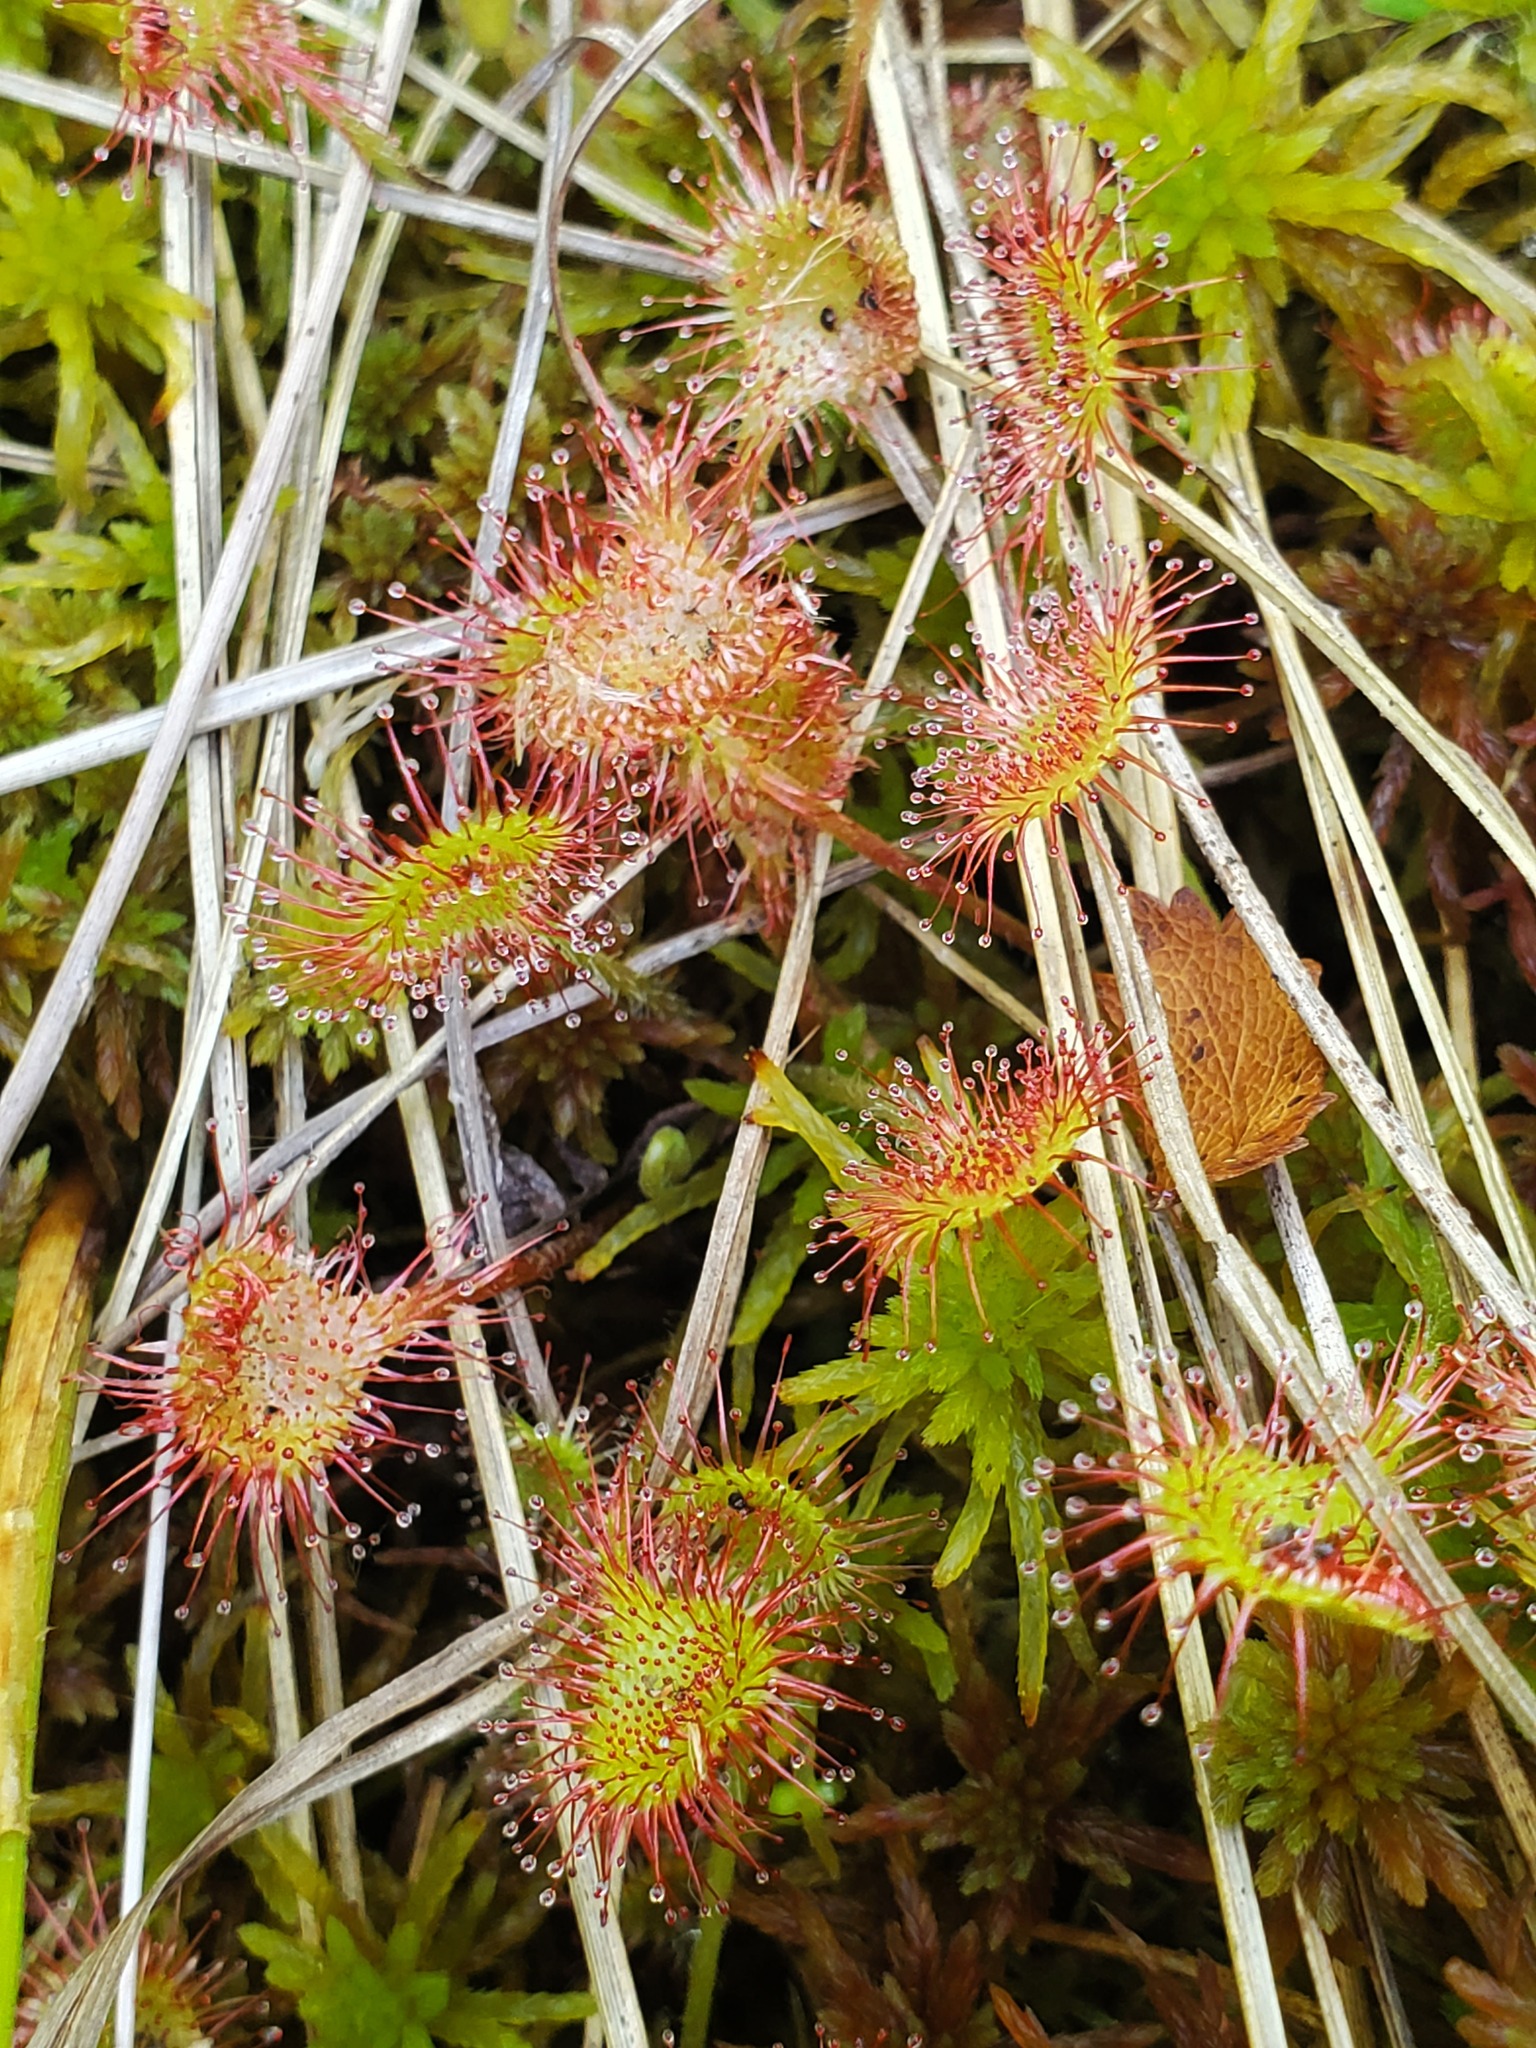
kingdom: Plantae
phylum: Tracheophyta
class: Magnoliopsida
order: Caryophyllales
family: Droseraceae
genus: Drosera
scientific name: Drosera rotundifolia
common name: Round-leaved sundew
